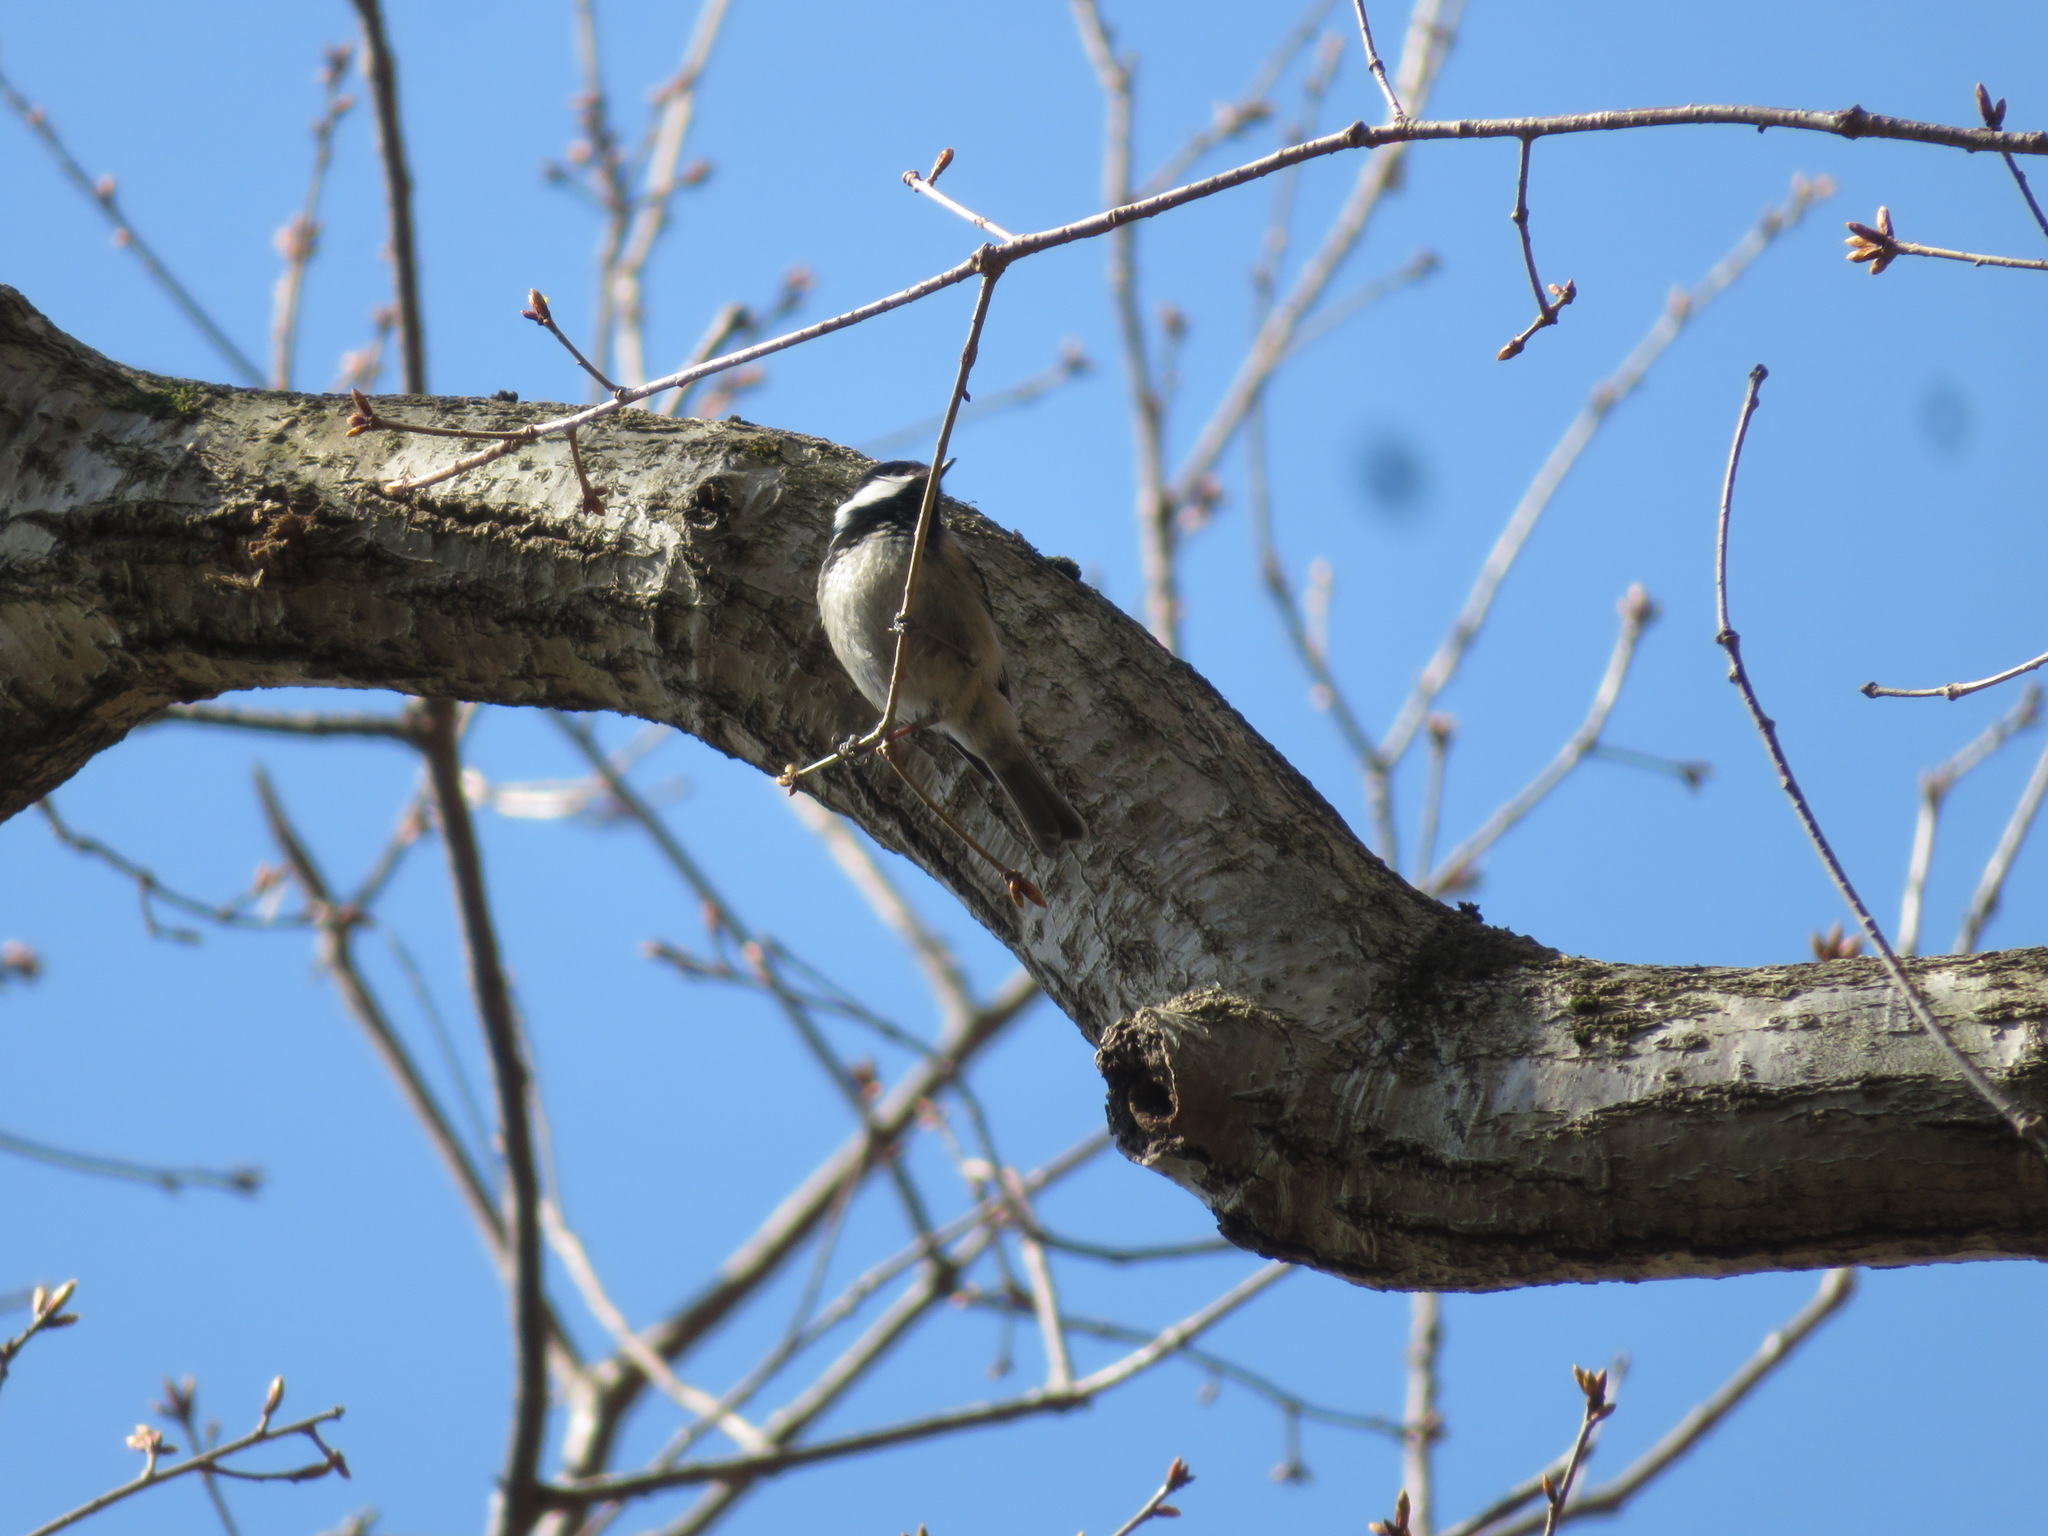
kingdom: Animalia
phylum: Chordata
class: Aves
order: Passeriformes
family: Paridae
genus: Periparus
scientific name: Periparus ater
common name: Coal tit
